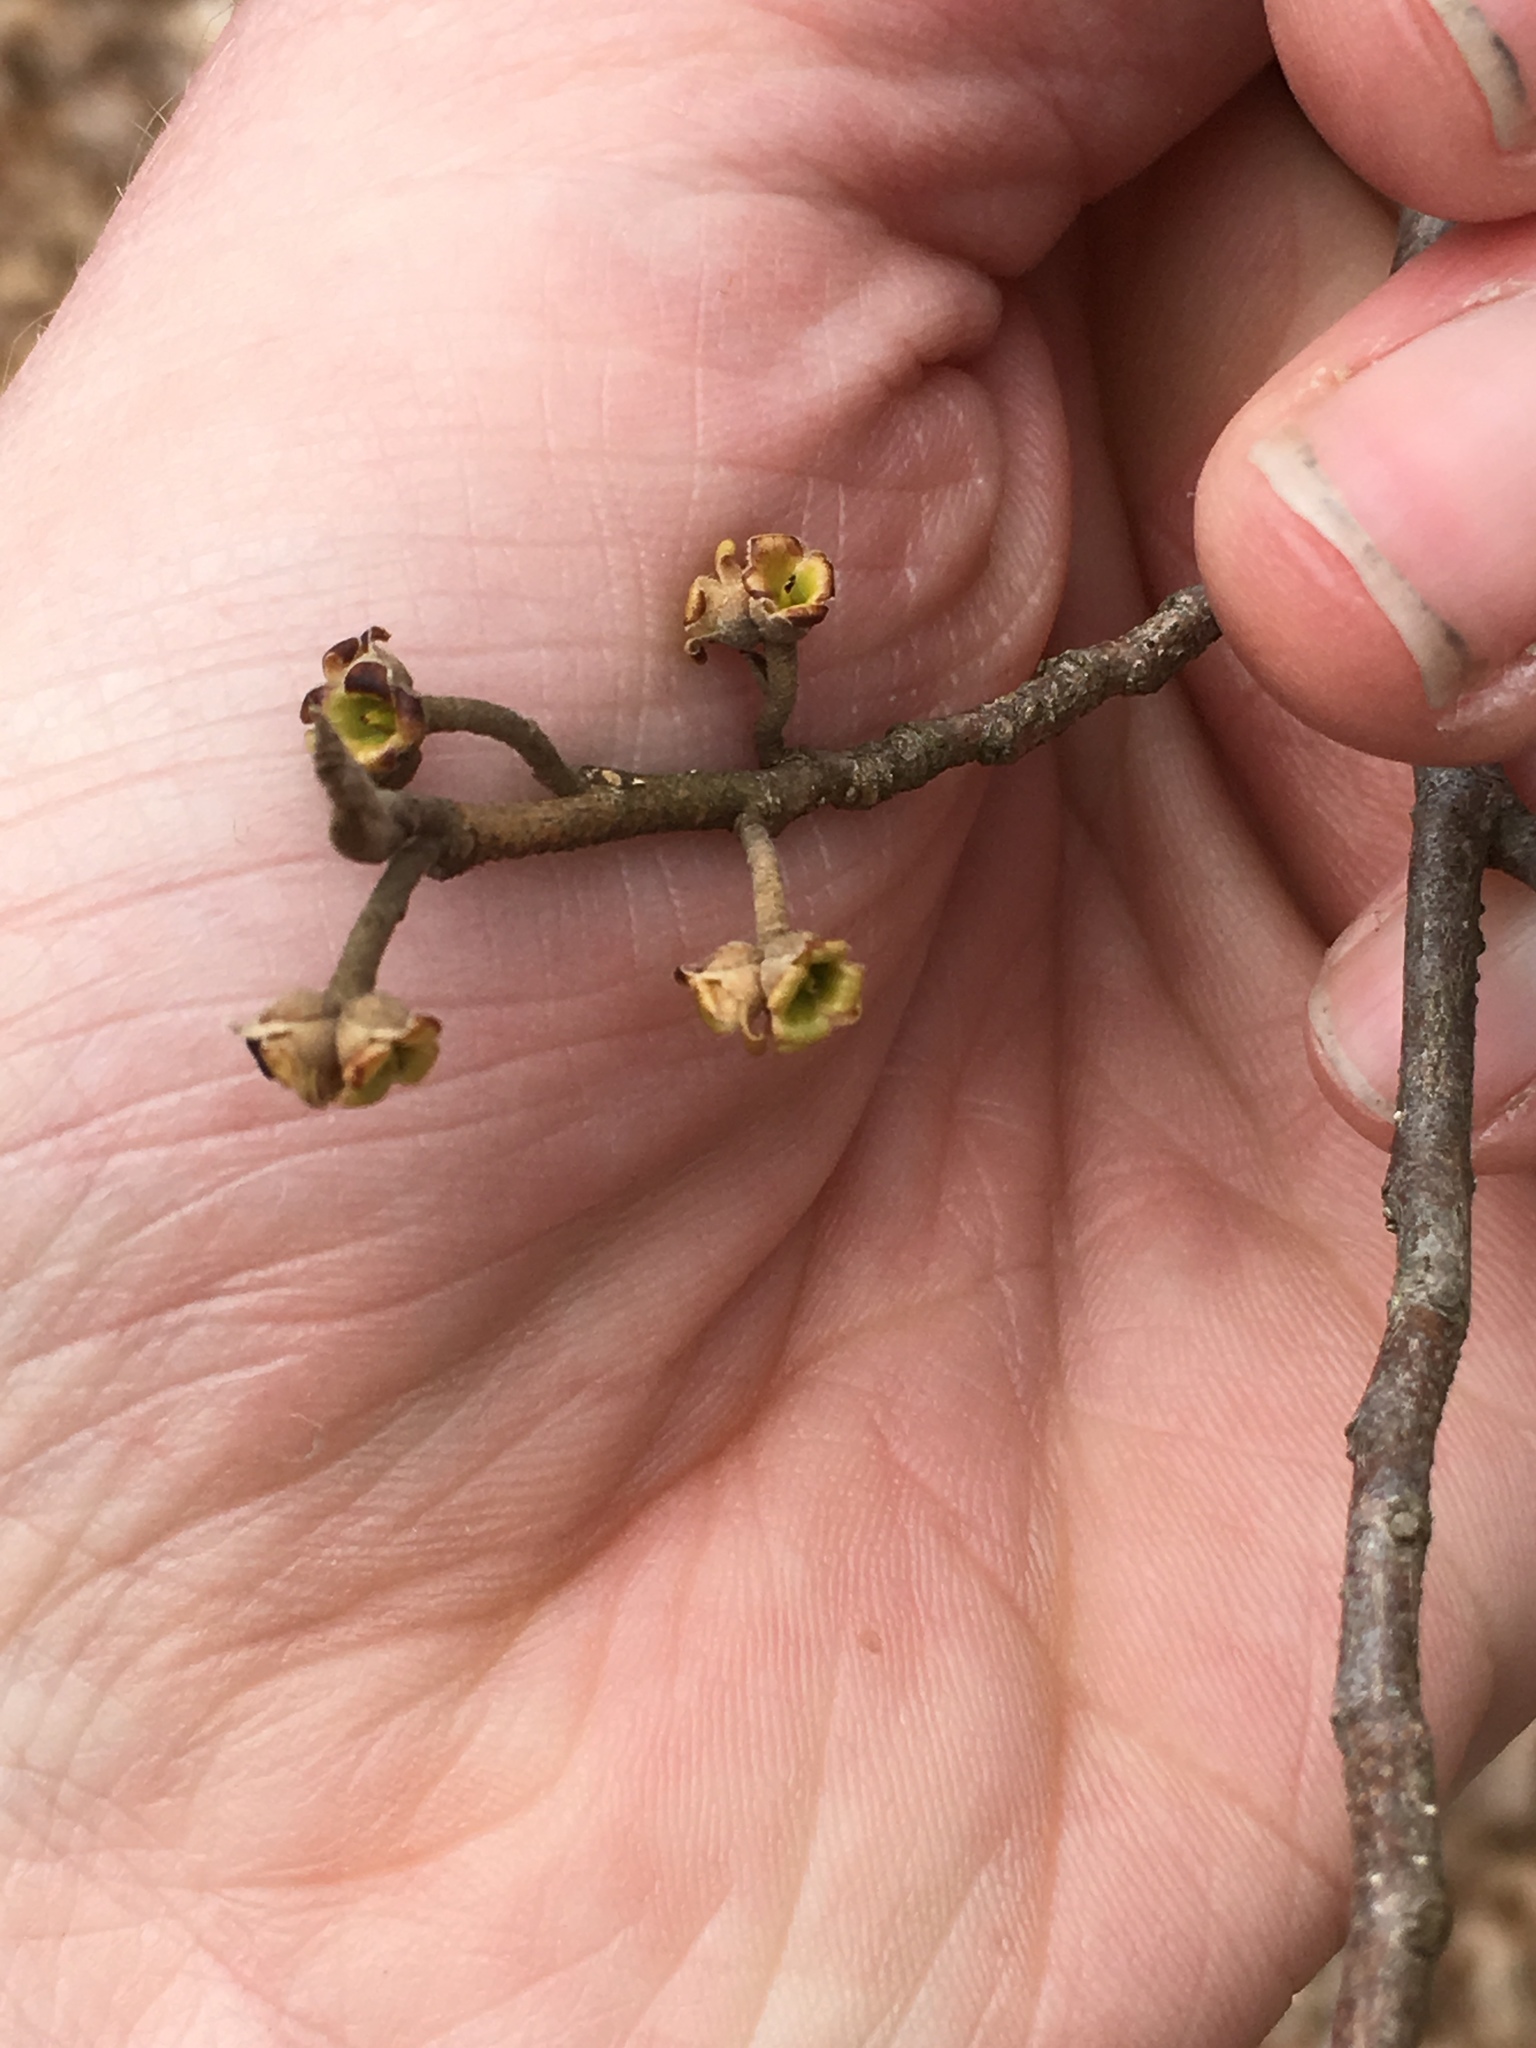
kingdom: Plantae
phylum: Tracheophyta
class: Magnoliopsida
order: Saxifragales
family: Hamamelidaceae
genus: Hamamelis
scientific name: Hamamelis virginiana
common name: Witch-hazel
